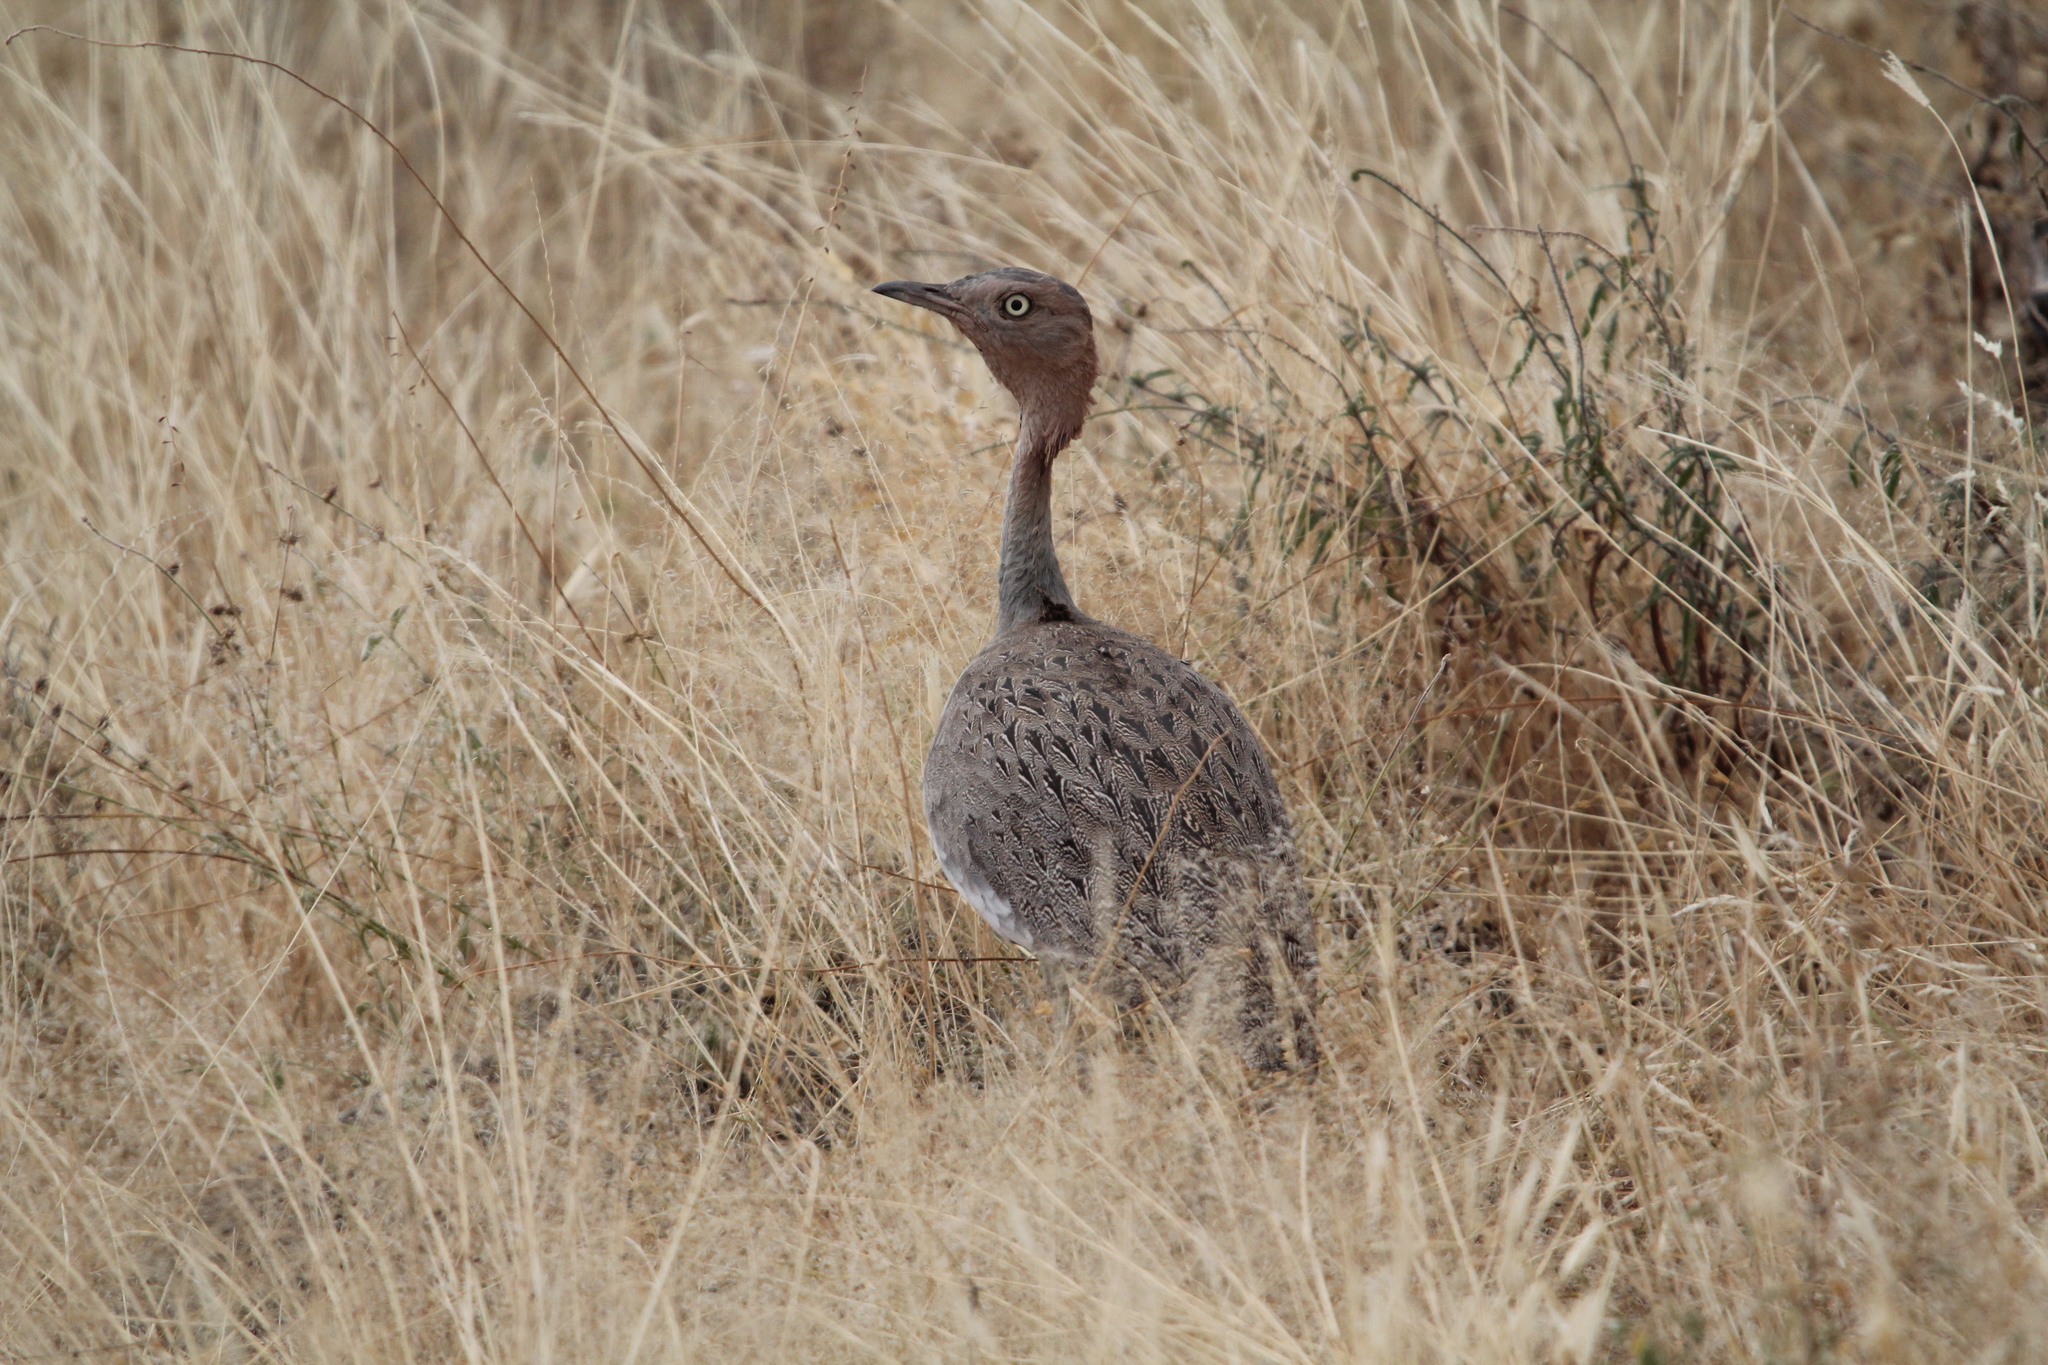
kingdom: Animalia
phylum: Chordata
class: Aves
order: Otidiformes
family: Otididae
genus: Lophotis
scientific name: Lophotis gindiana
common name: Buff-crested bustard
